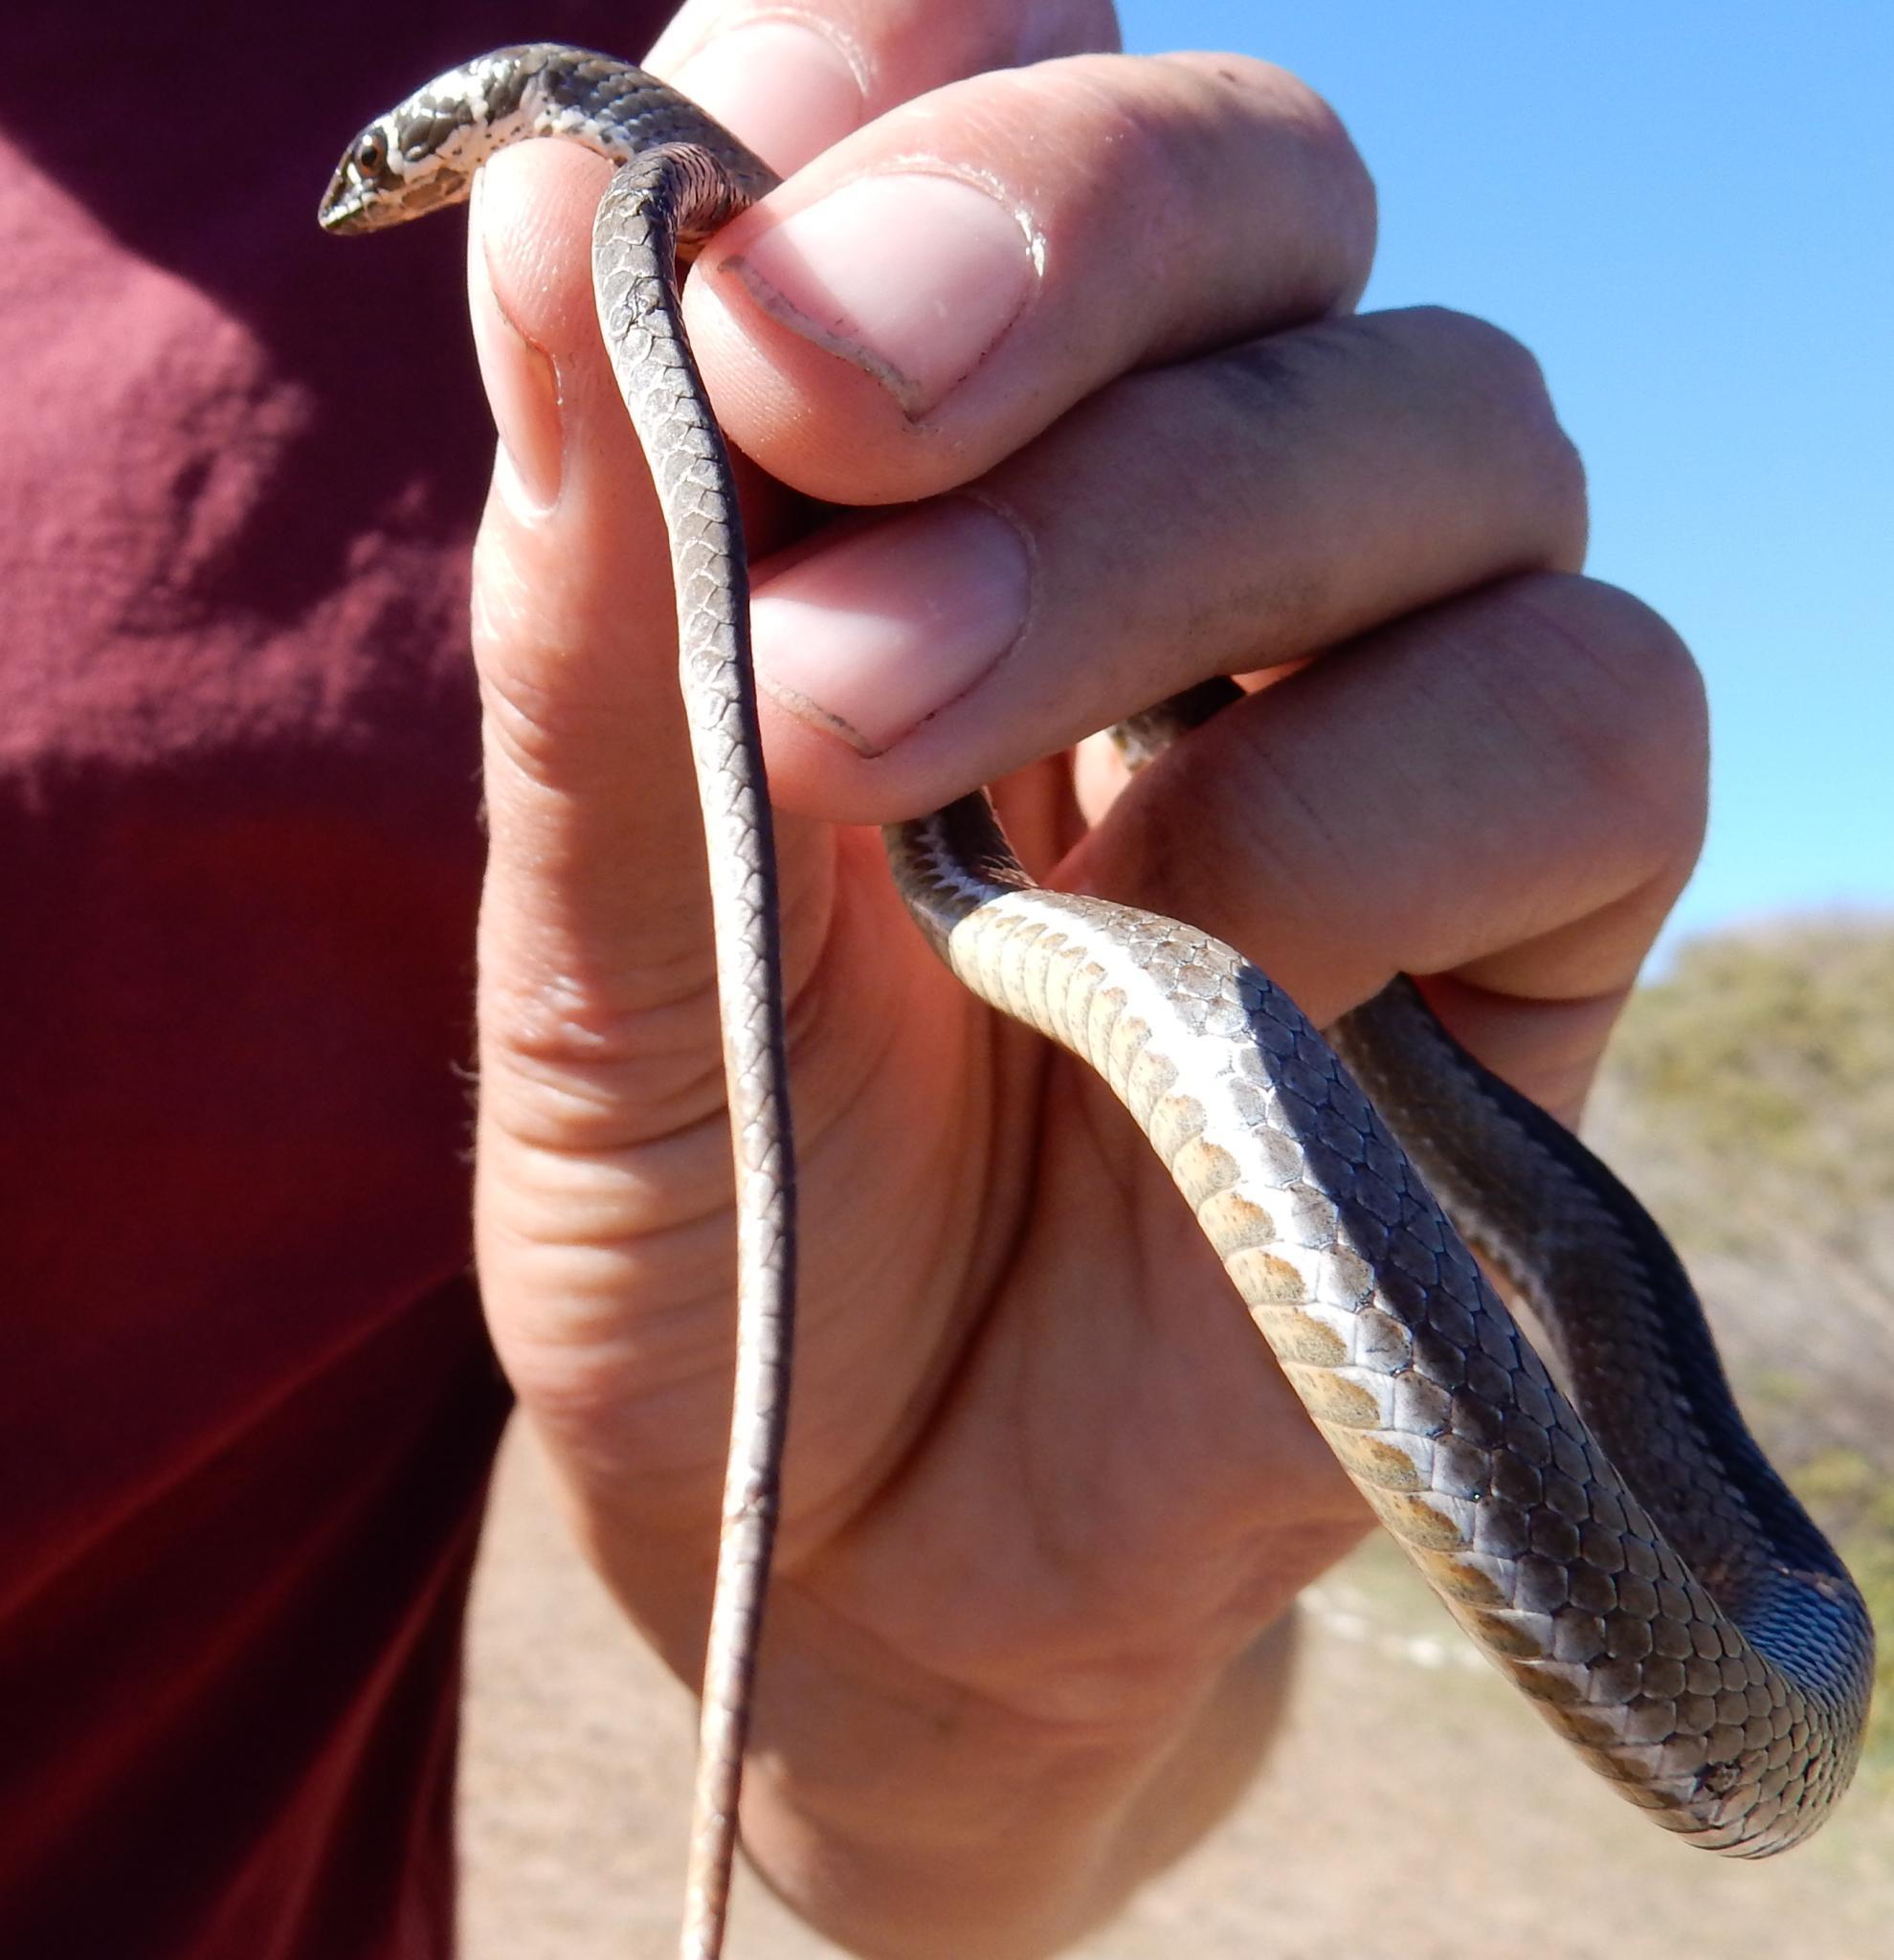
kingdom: Animalia
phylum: Chordata
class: Squamata
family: Psammophiidae
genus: Psammophis
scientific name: Psammophis crucifer
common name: Cross-marked grass snake
